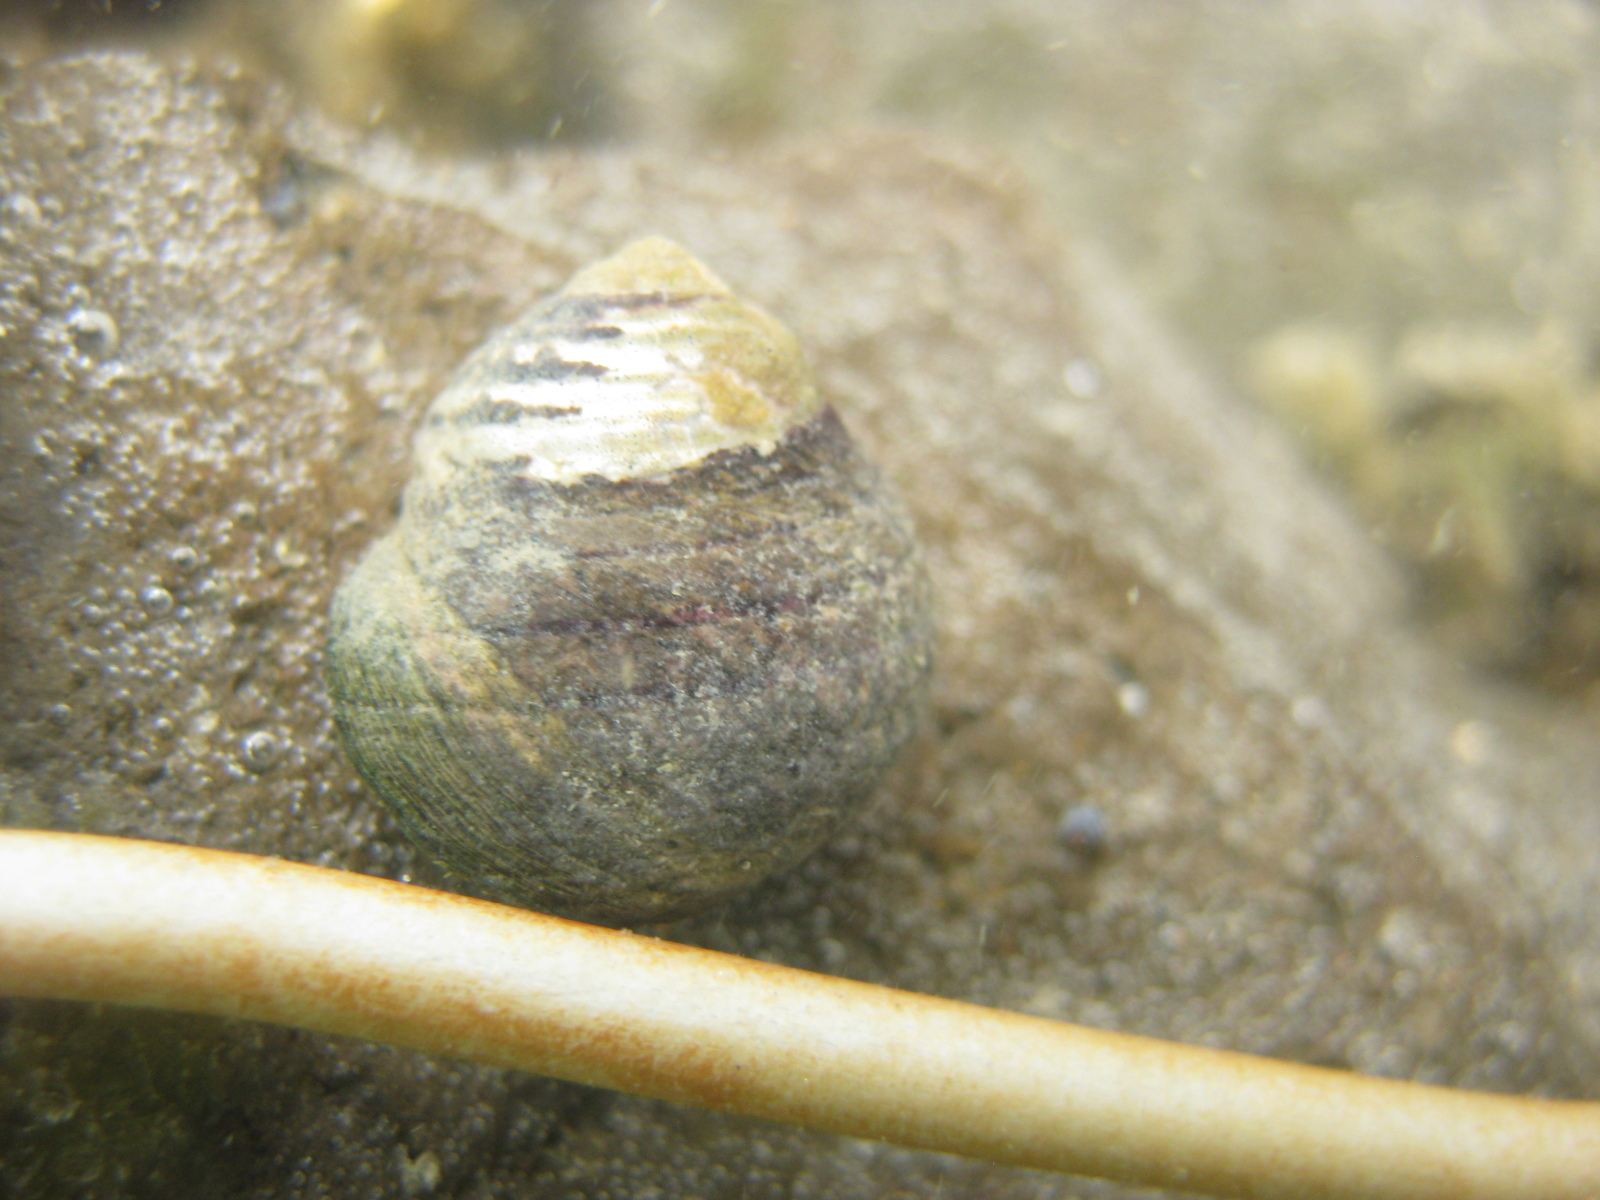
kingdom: Animalia
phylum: Mollusca
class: Gastropoda
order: Trochida
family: Trochidae
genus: Diloma
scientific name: Diloma aethiops
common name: Scorched monodont
